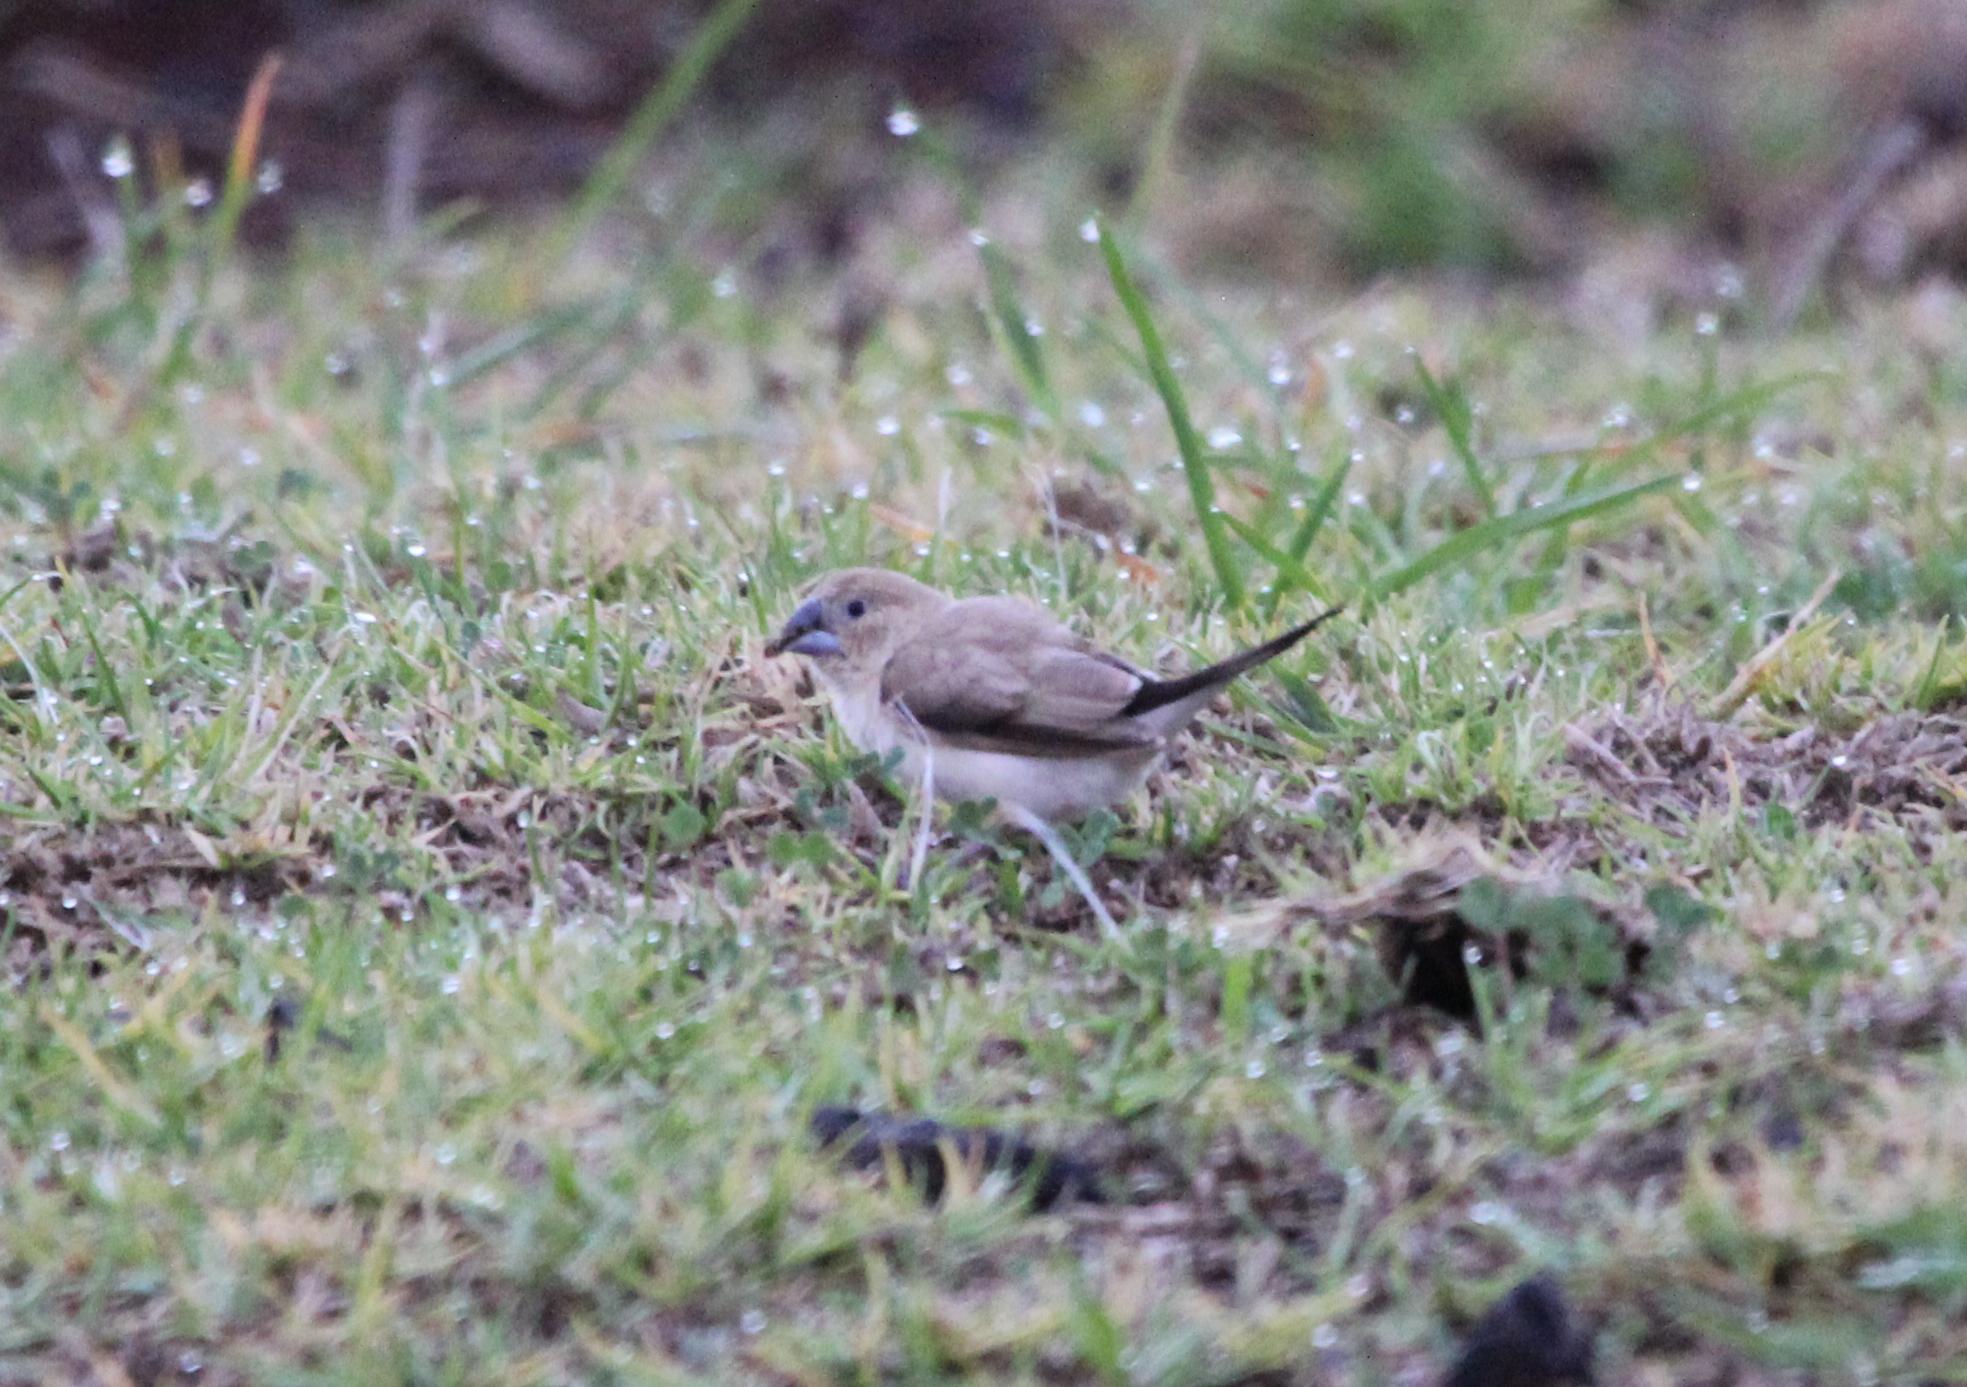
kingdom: Animalia
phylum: Chordata
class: Aves
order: Passeriformes
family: Estrildidae
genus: Euodice
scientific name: Euodice cantans
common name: African silverbill
